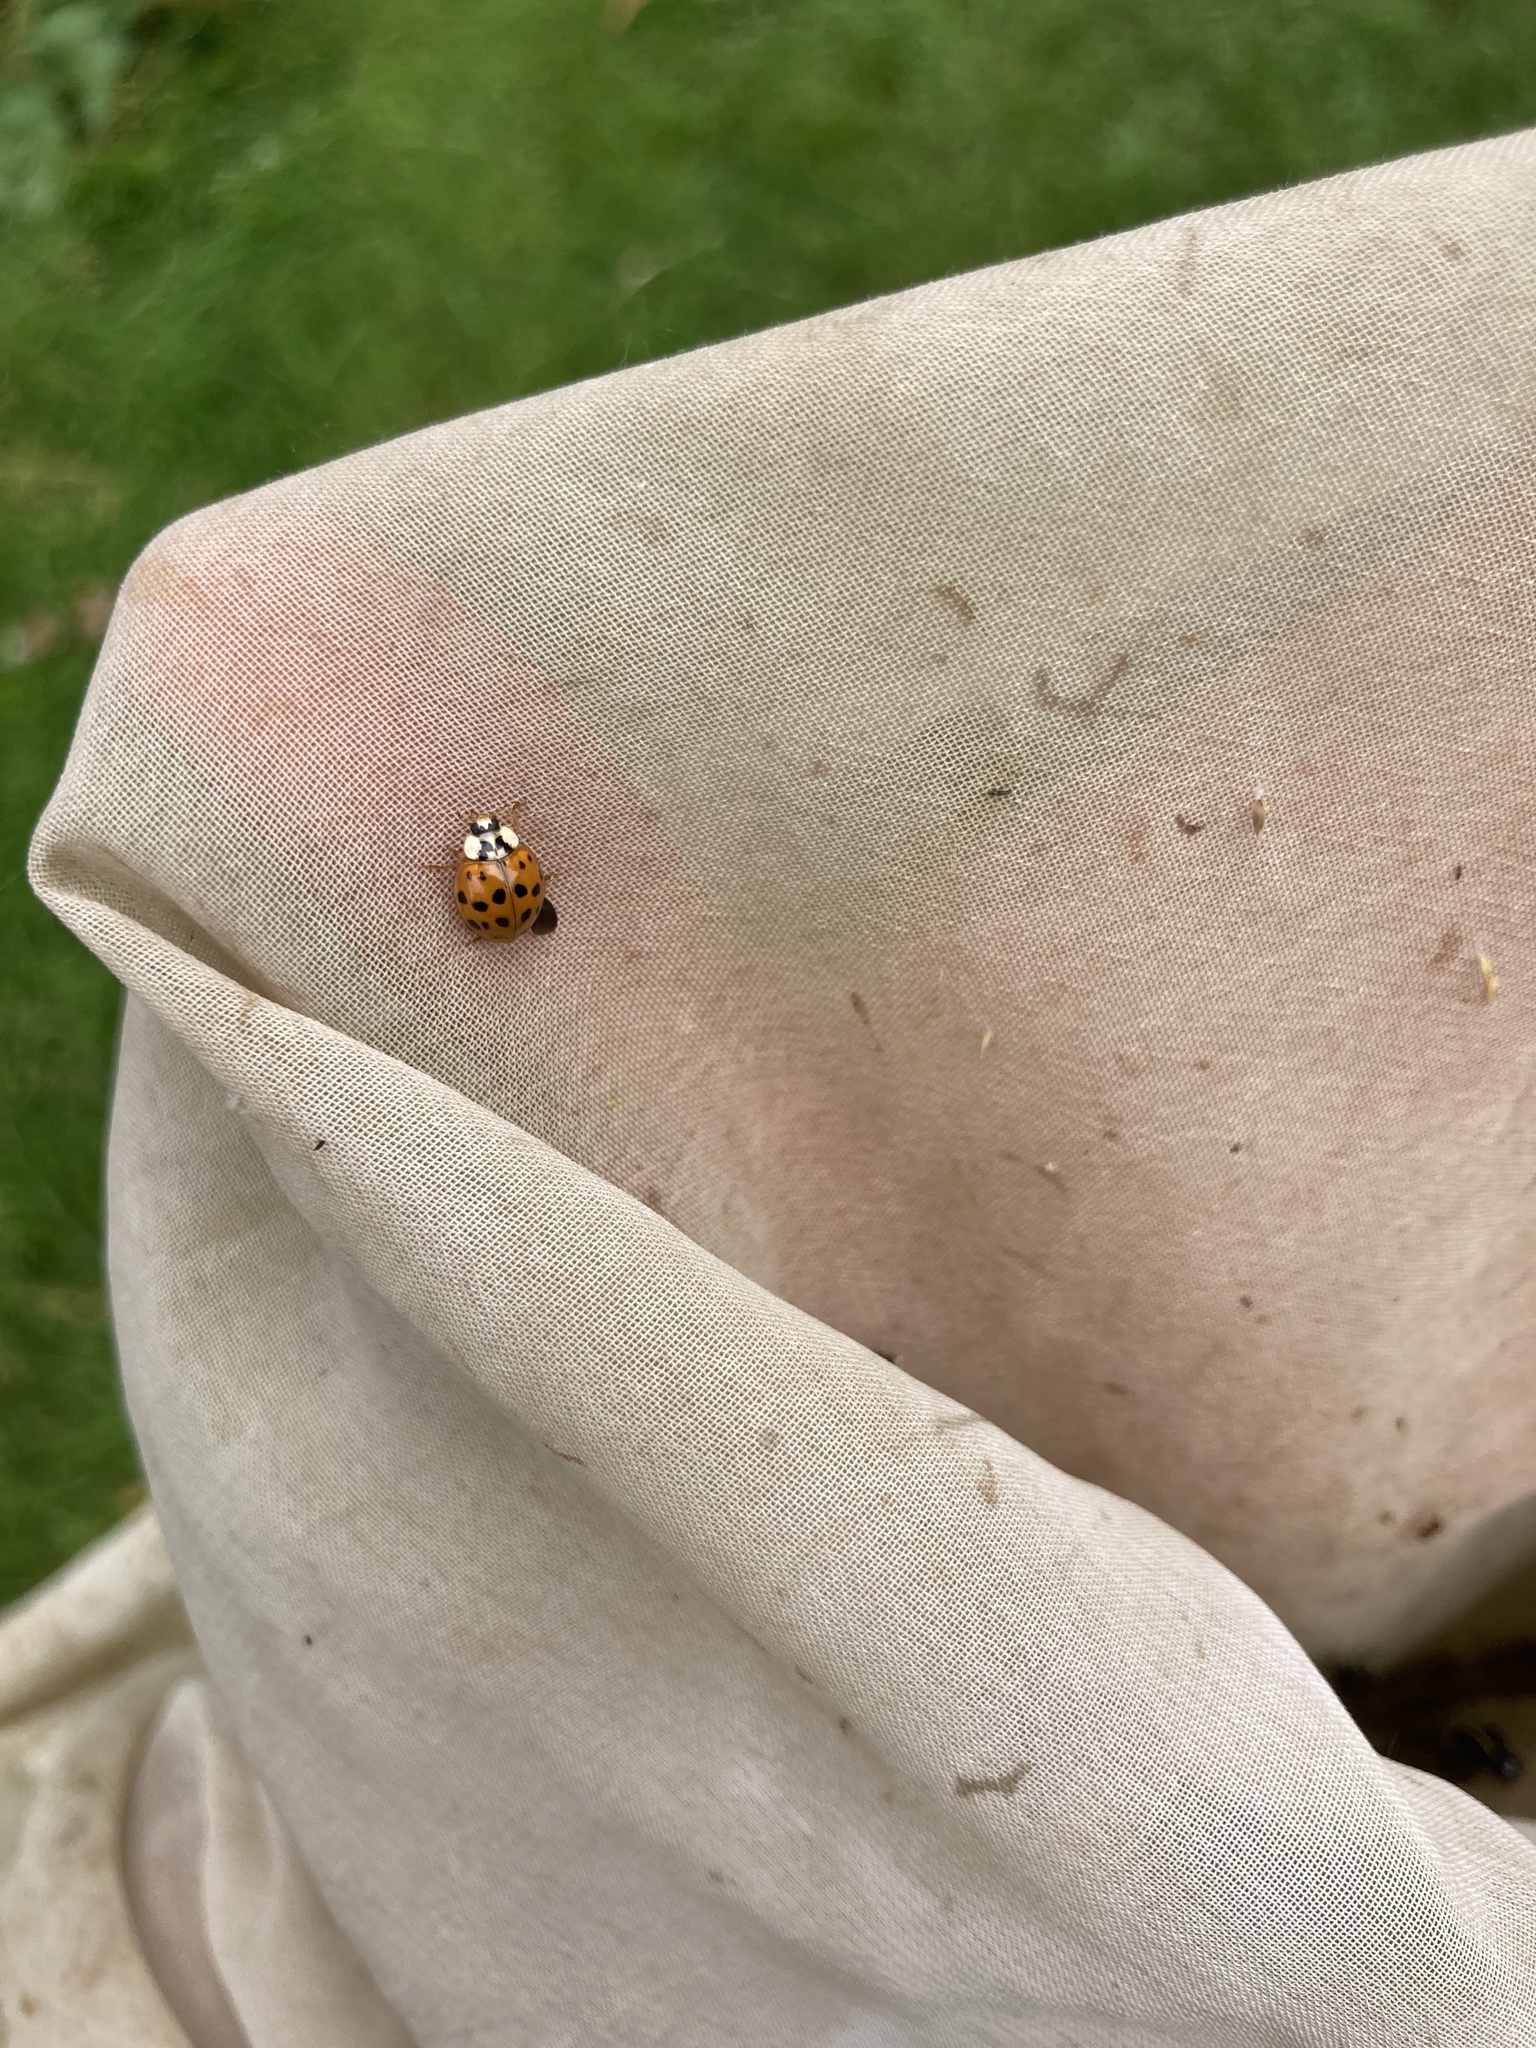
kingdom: Animalia
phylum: Arthropoda
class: Insecta
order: Coleoptera
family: Coccinellidae
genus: Harmonia
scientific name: Harmonia axyridis
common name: Harlequin ladybird
